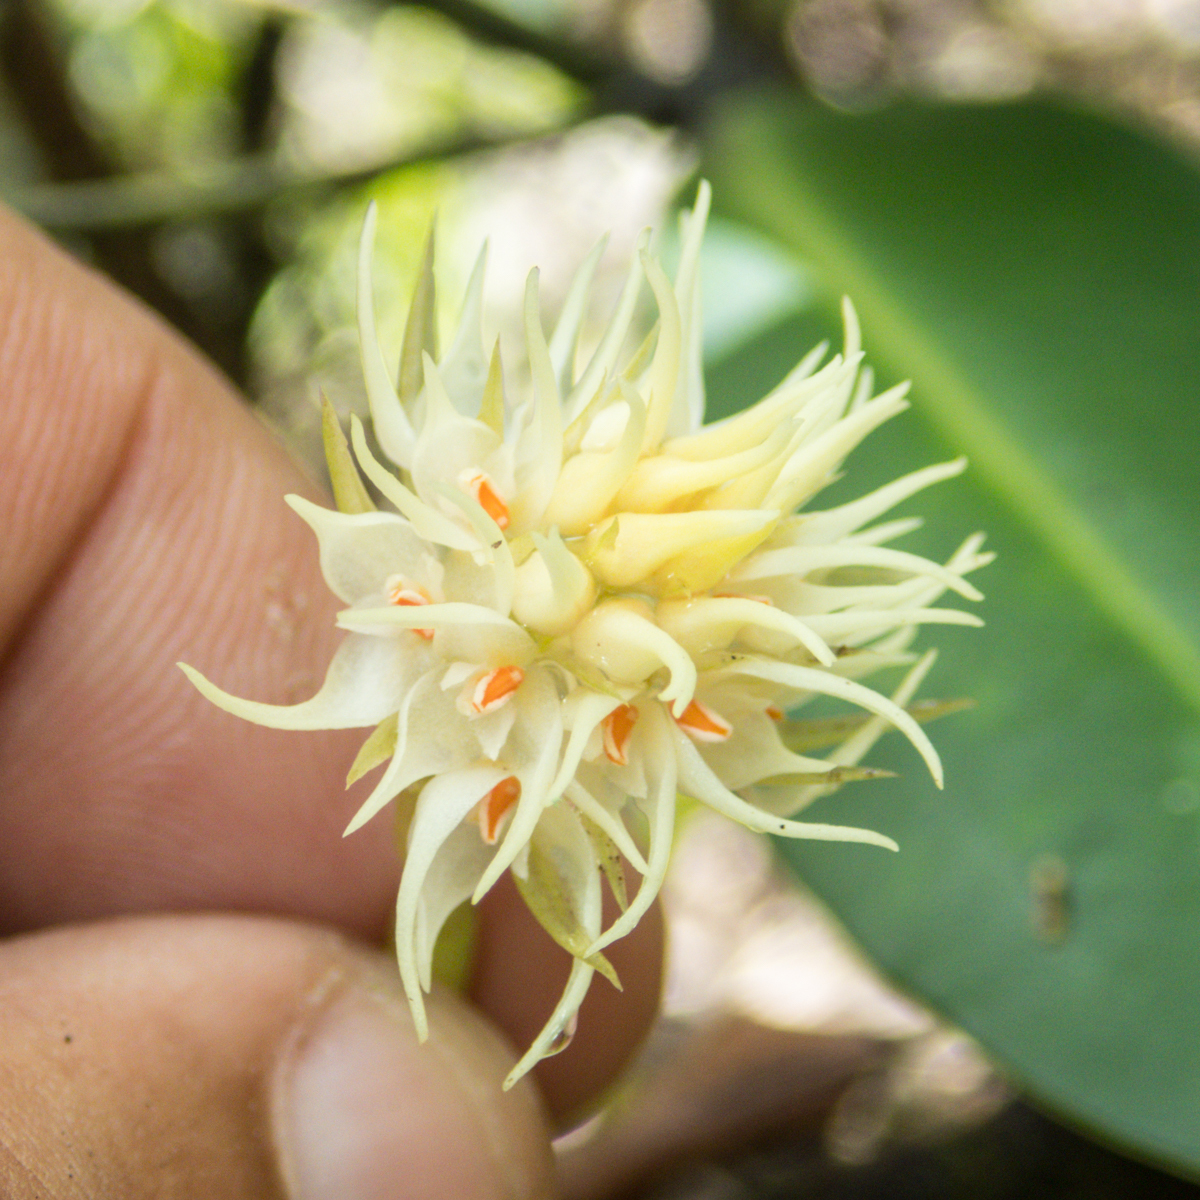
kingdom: Plantae
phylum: Tracheophyta
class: Liliopsida
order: Asparagales
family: Orchidaceae
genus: Bulbophyllum
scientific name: Bulbophyllum odoratissimum
